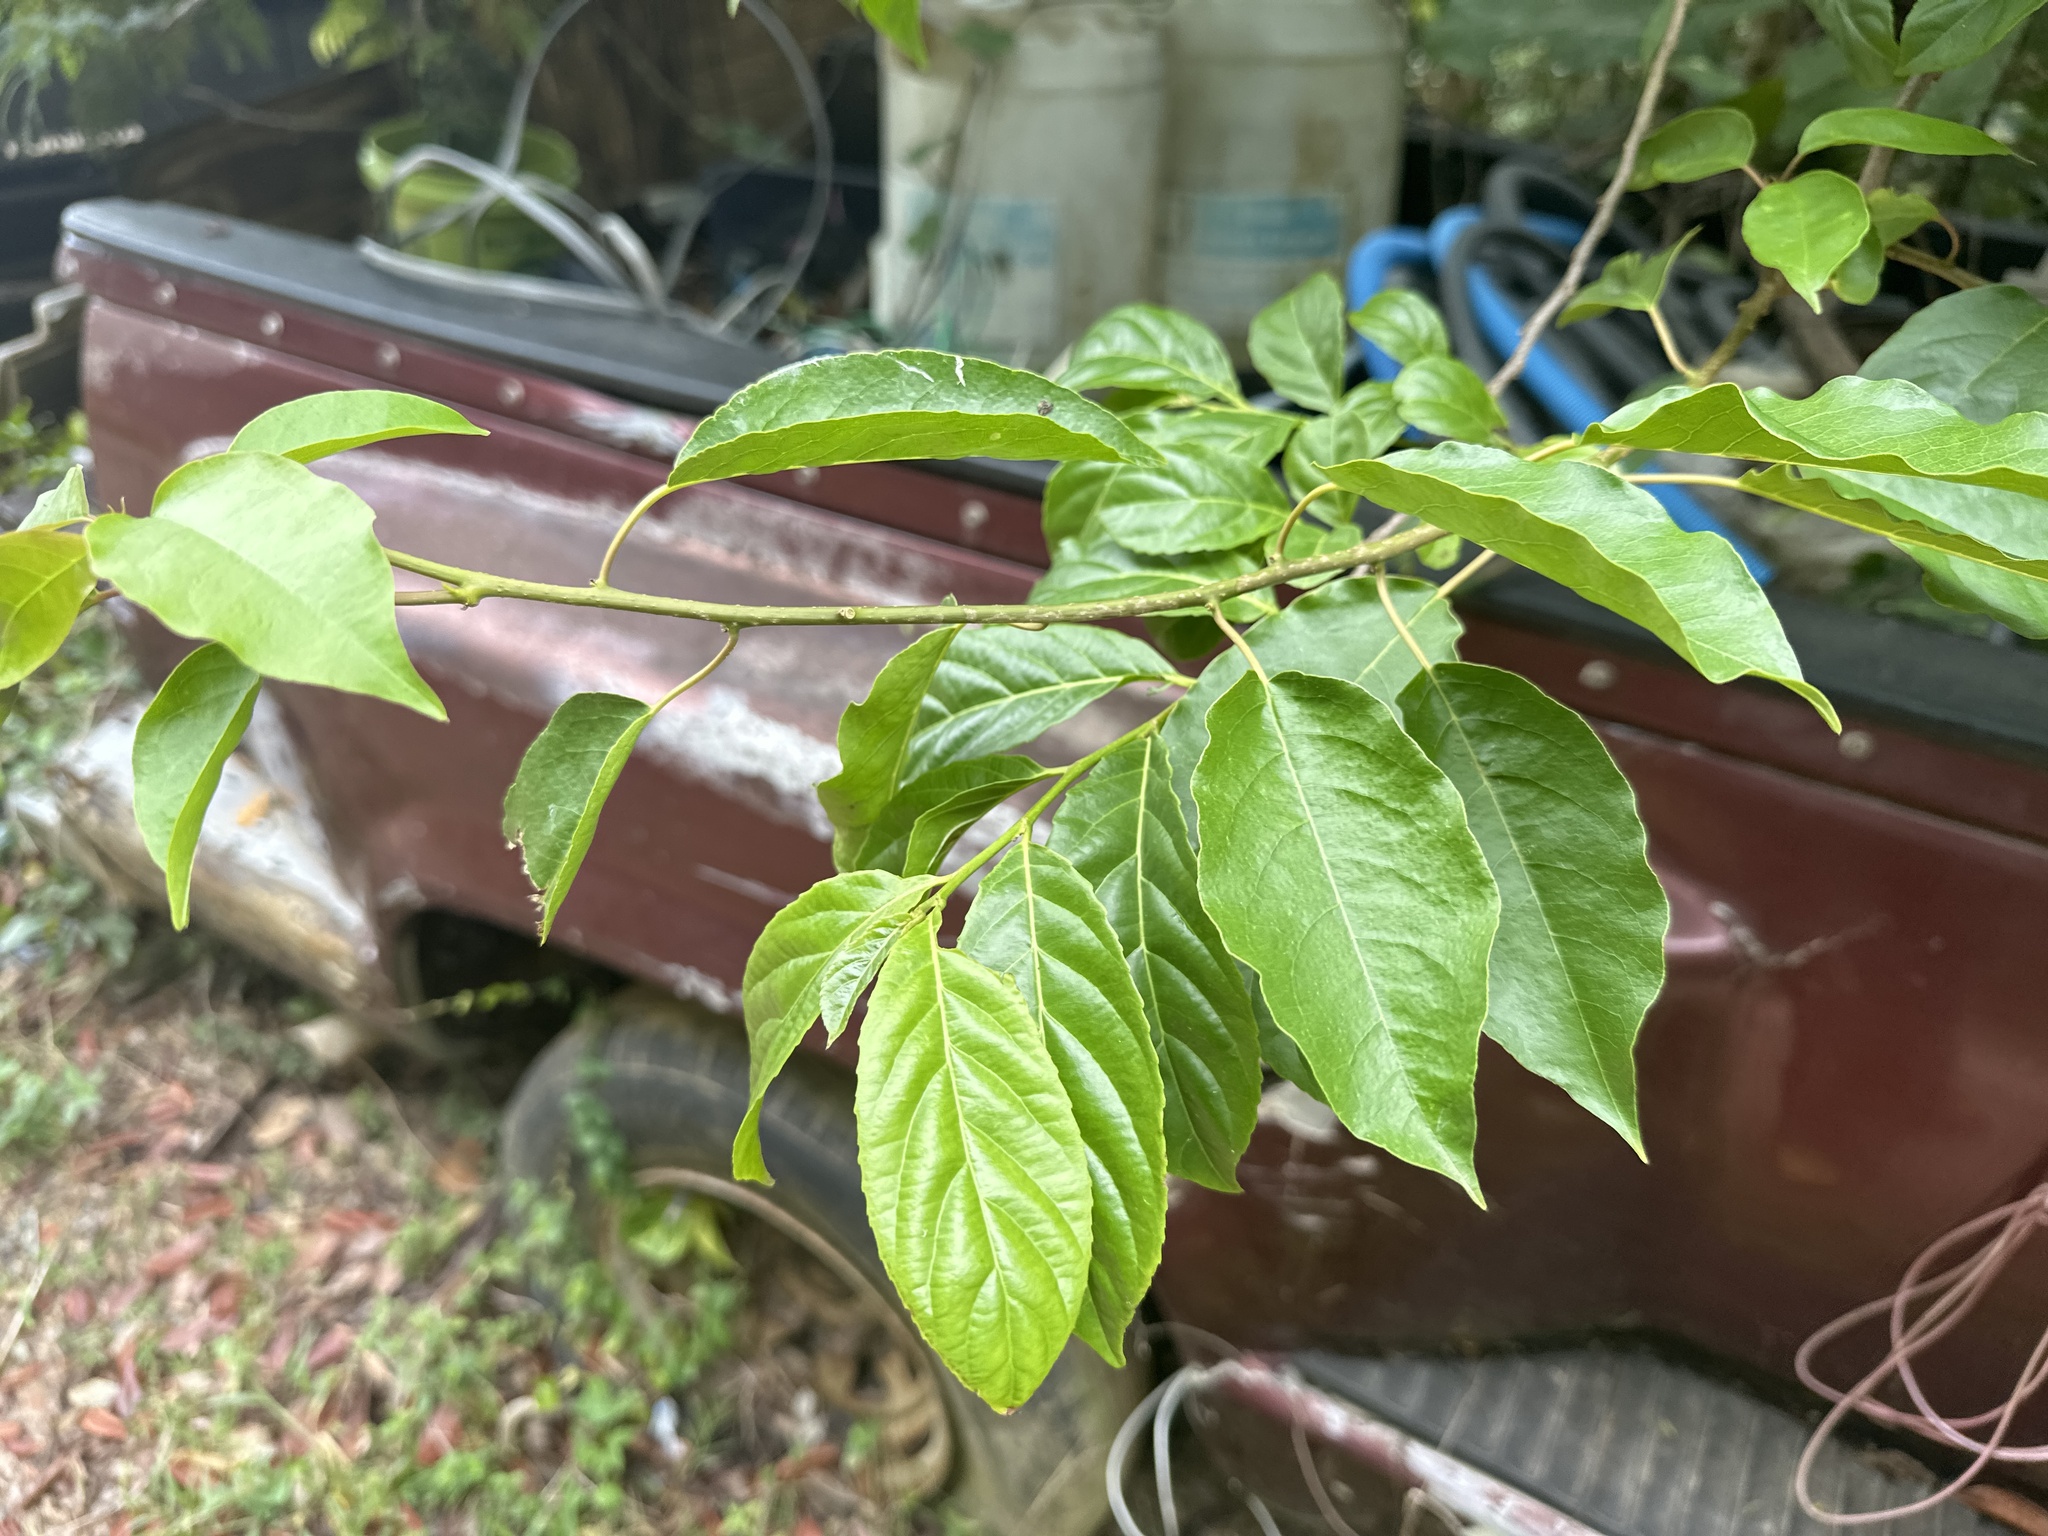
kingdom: Plantae
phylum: Tracheophyta
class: Magnoliopsida
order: Malpighiales
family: Salicaceae
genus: Casearia
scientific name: Casearia guianensis
